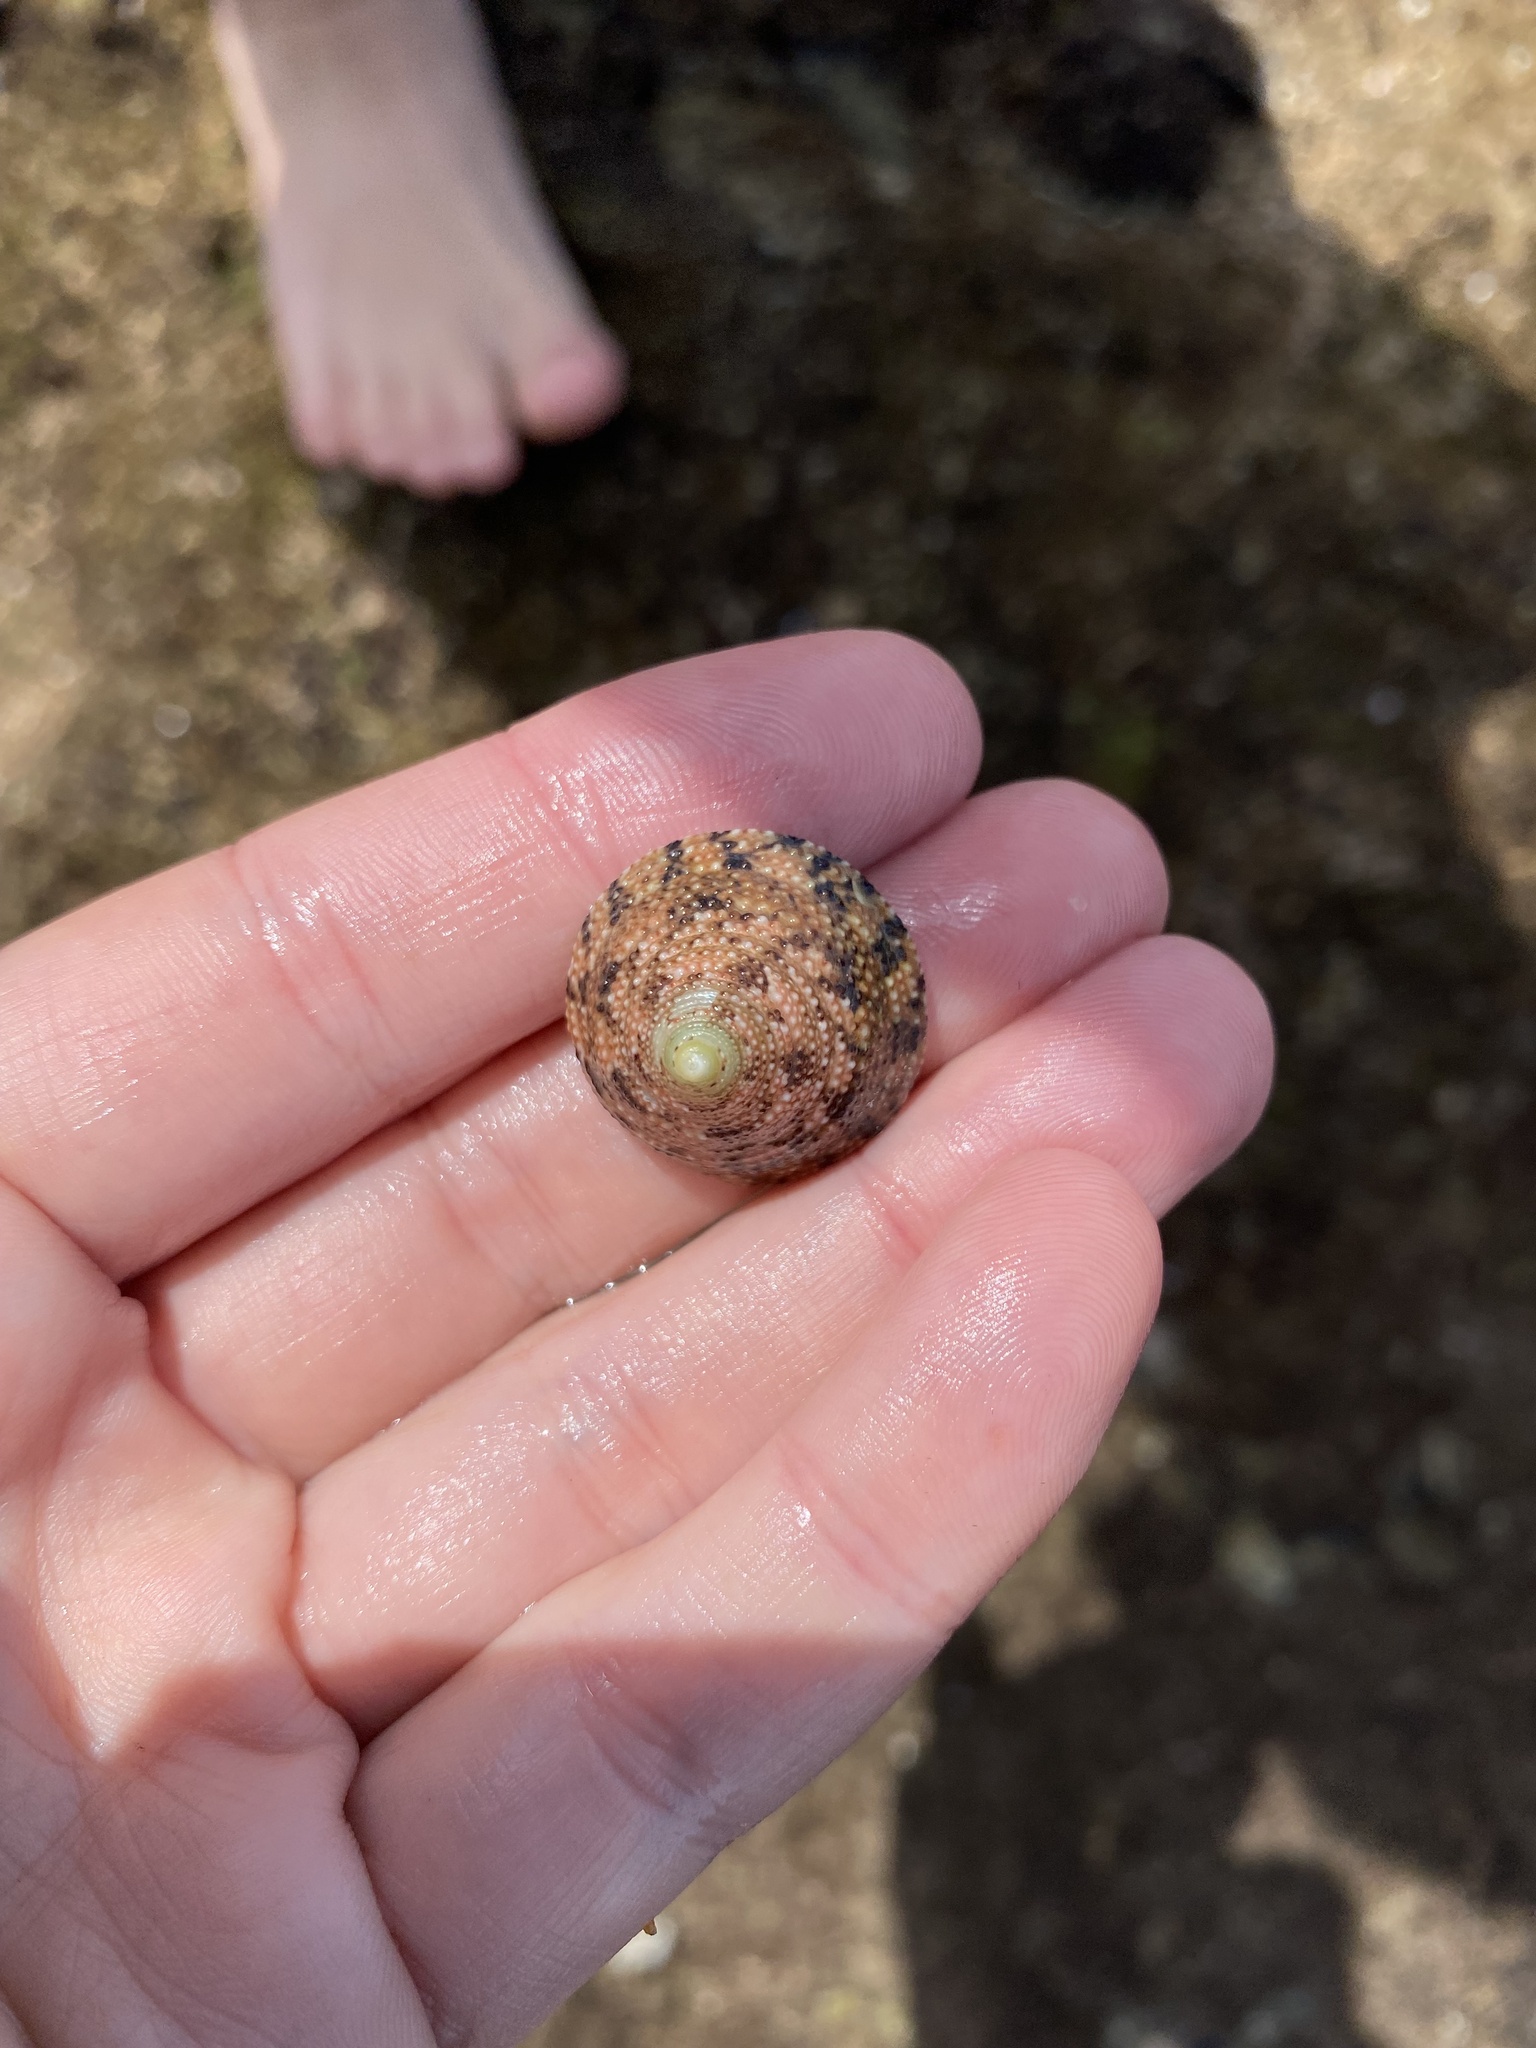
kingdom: Animalia
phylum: Mollusca
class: Gastropoda
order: Trochida
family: Trochidae
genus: Trochus
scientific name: Trochus nigropunctatus
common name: Black-spotted topshell
